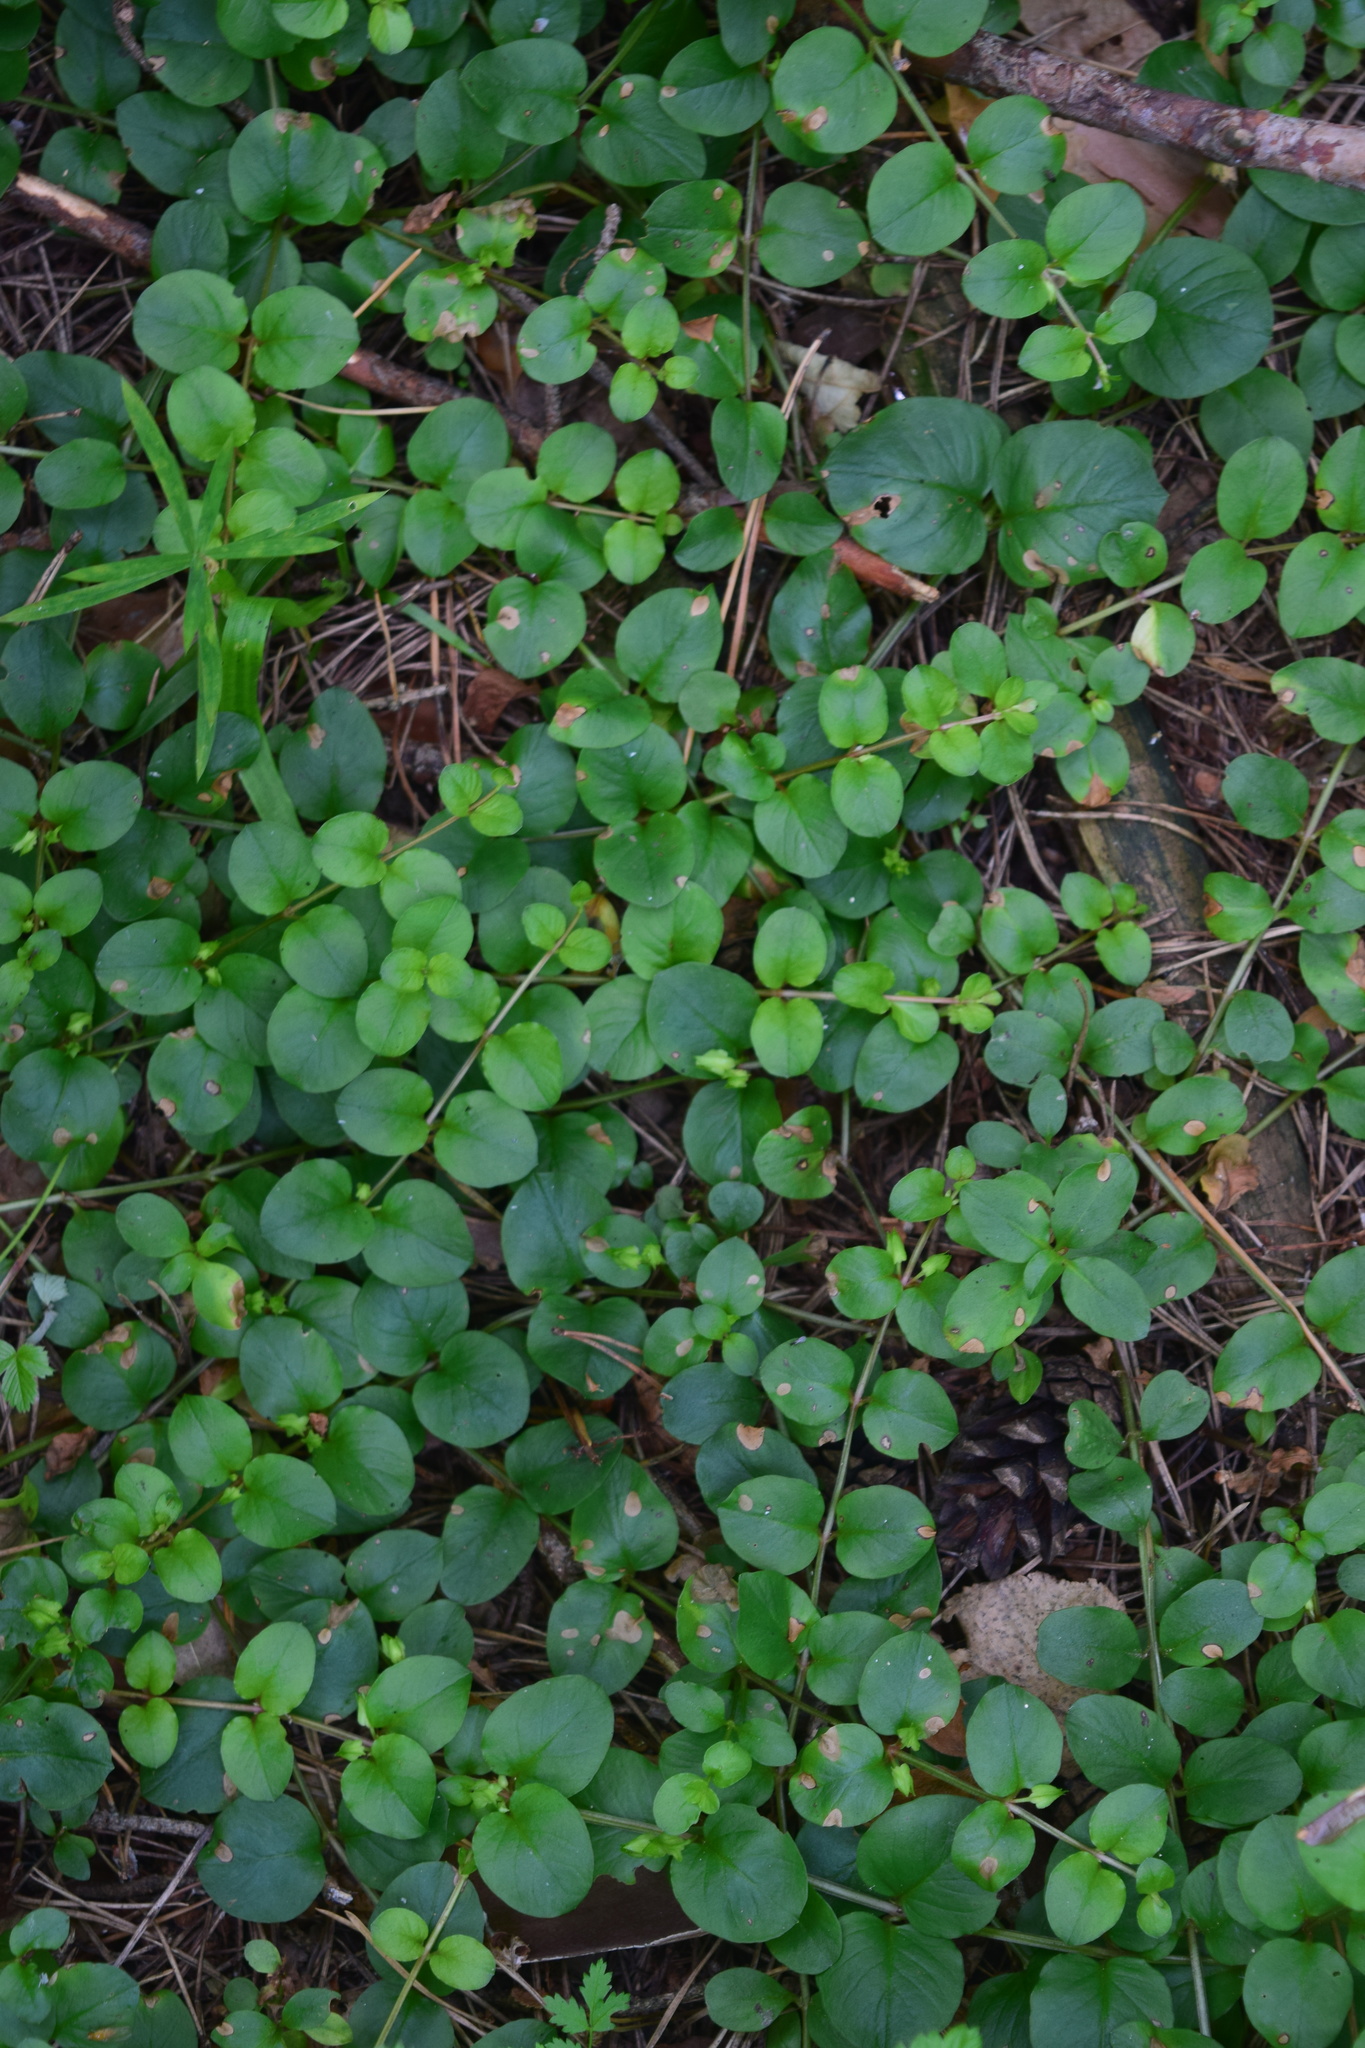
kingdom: Plantae
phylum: Tracheophyta
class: Magnoliopsida
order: Ericales
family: Primulaceae
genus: Lysimachia
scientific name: Lysimachia nummularia
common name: Moneywort
